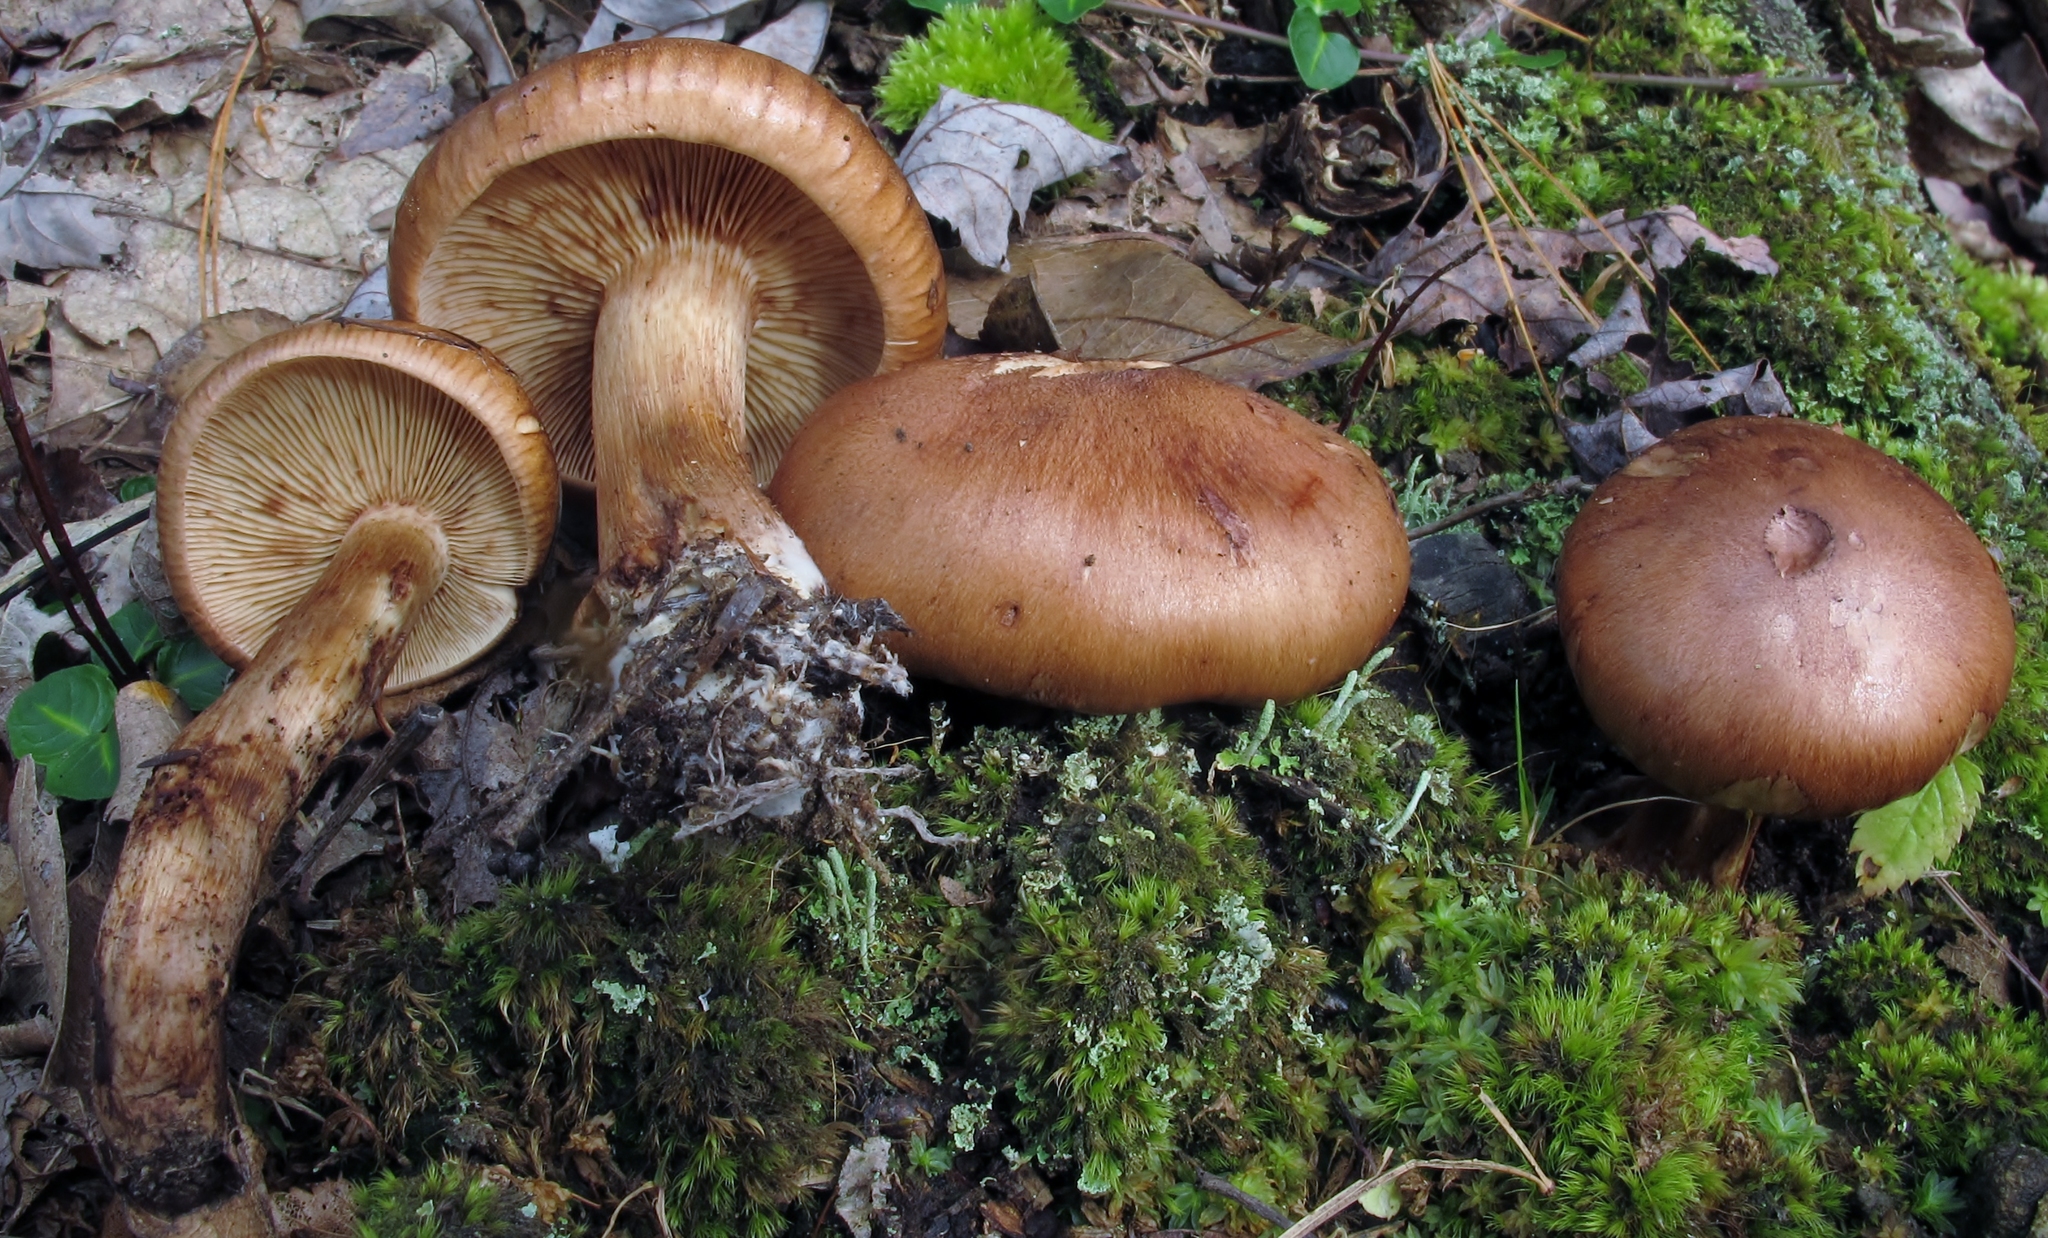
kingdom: Fungi
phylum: Basidiomycota
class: Agaricomycetes
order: Agaricales
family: Tricholomataceae
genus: Tricholoma
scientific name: Tricholoma fulvum
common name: Birch knight
